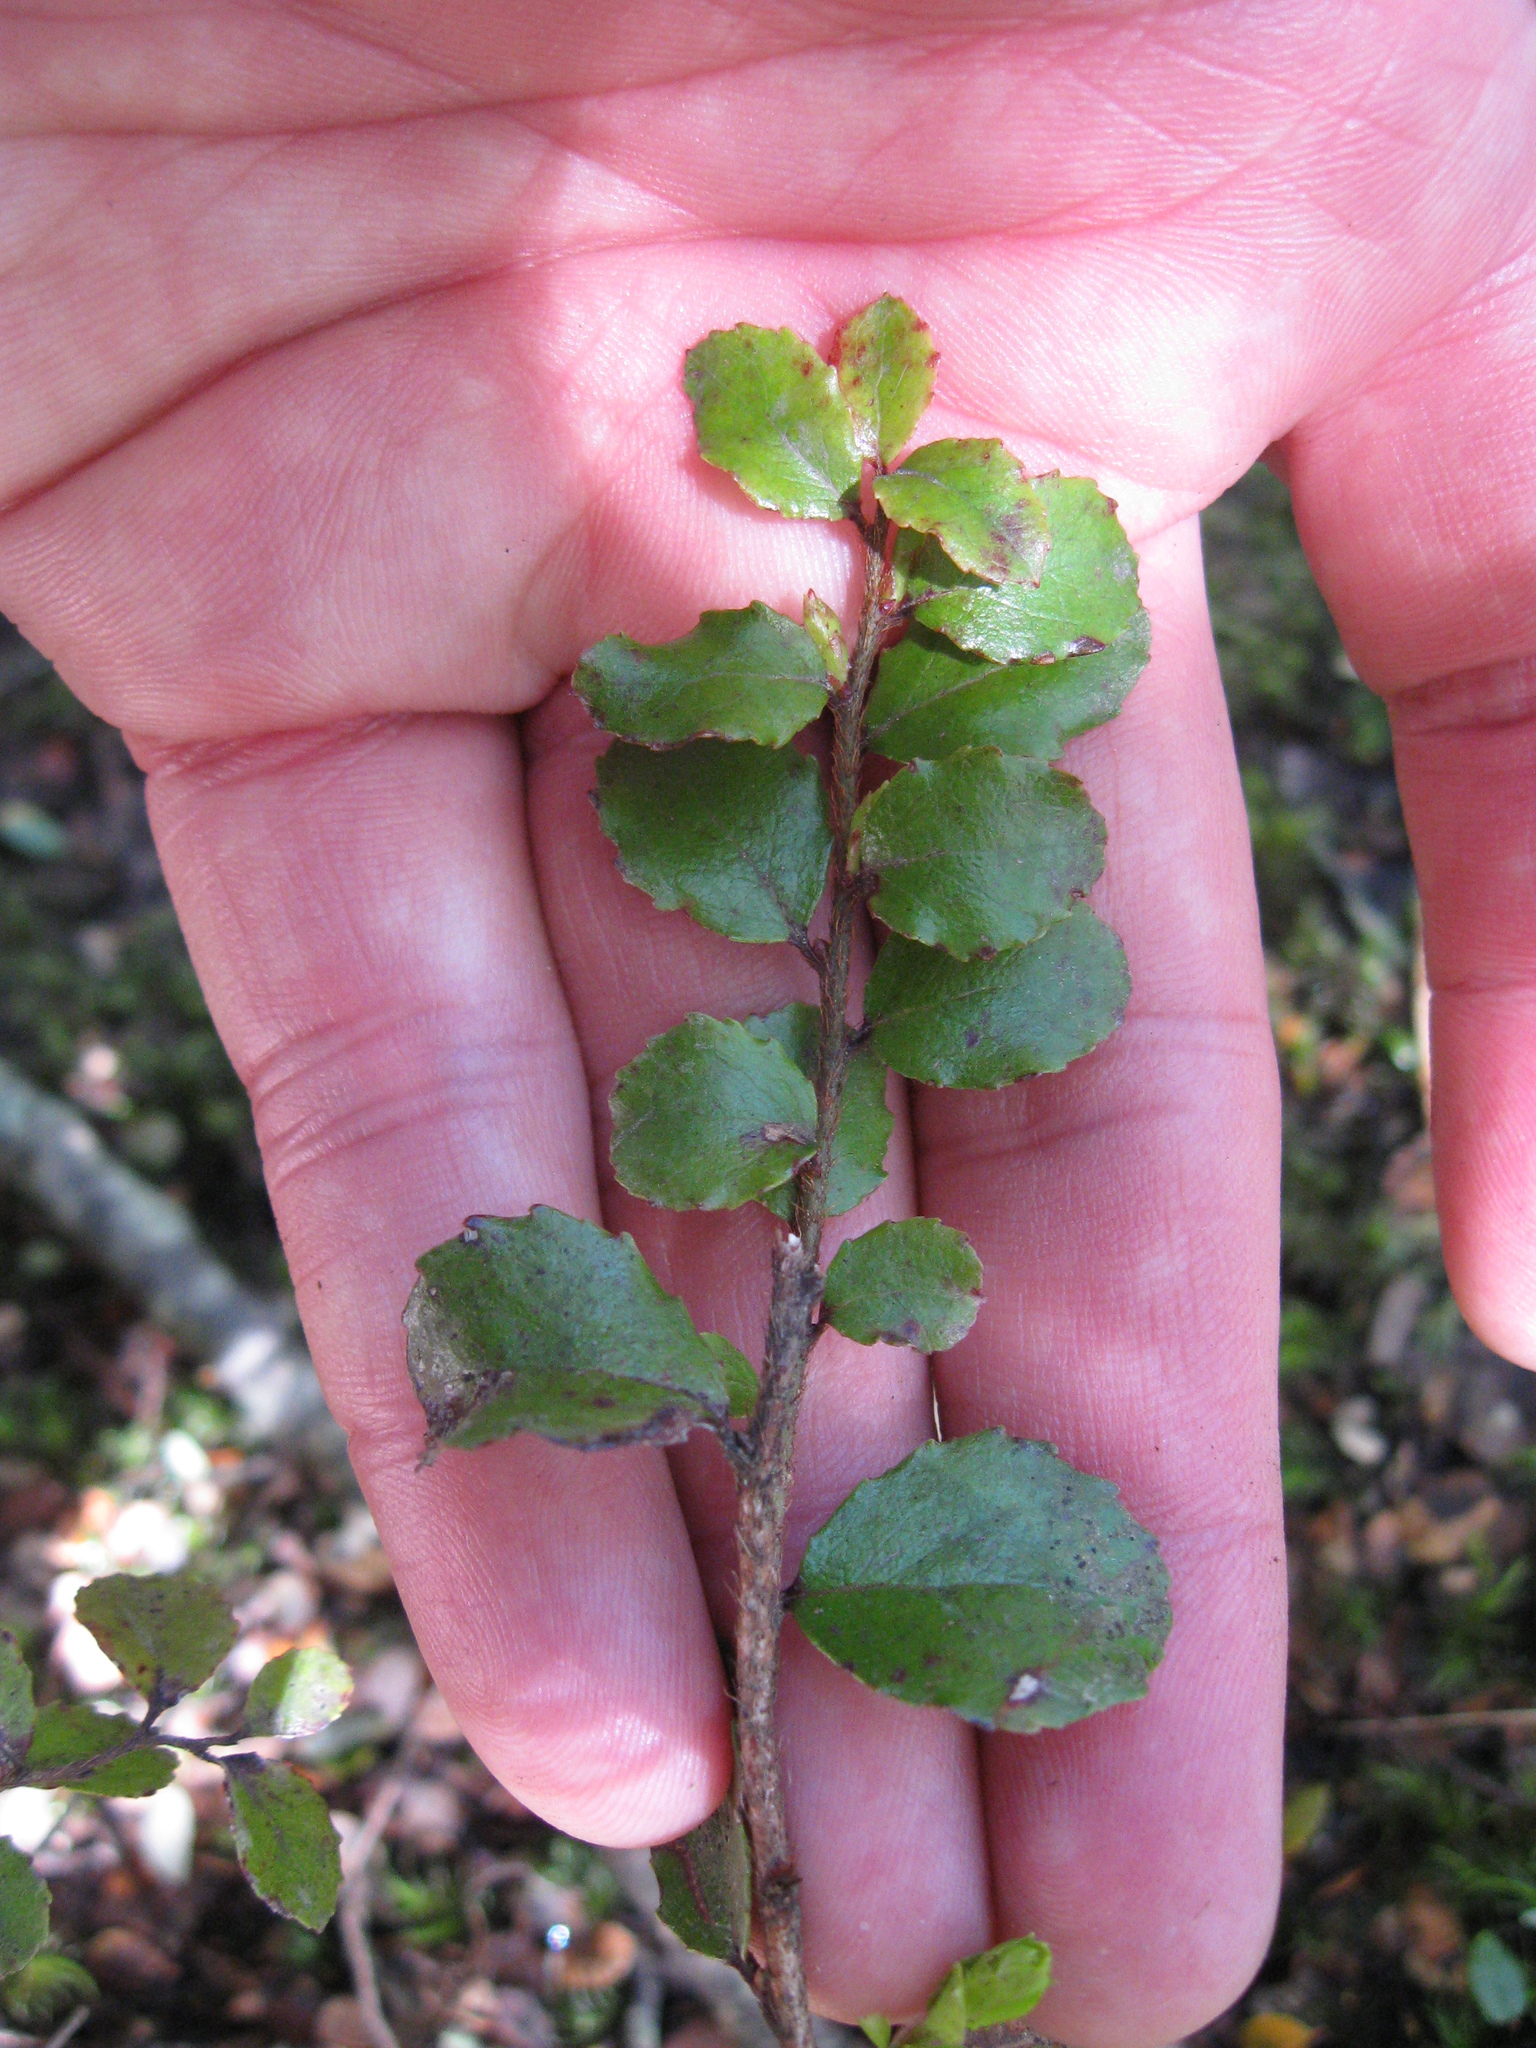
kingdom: Plantae
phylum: Tracheophyta
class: Magnoliopsida
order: Ericales
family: Ericaceae
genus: Gaultheria
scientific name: Gaultheria antipoda
